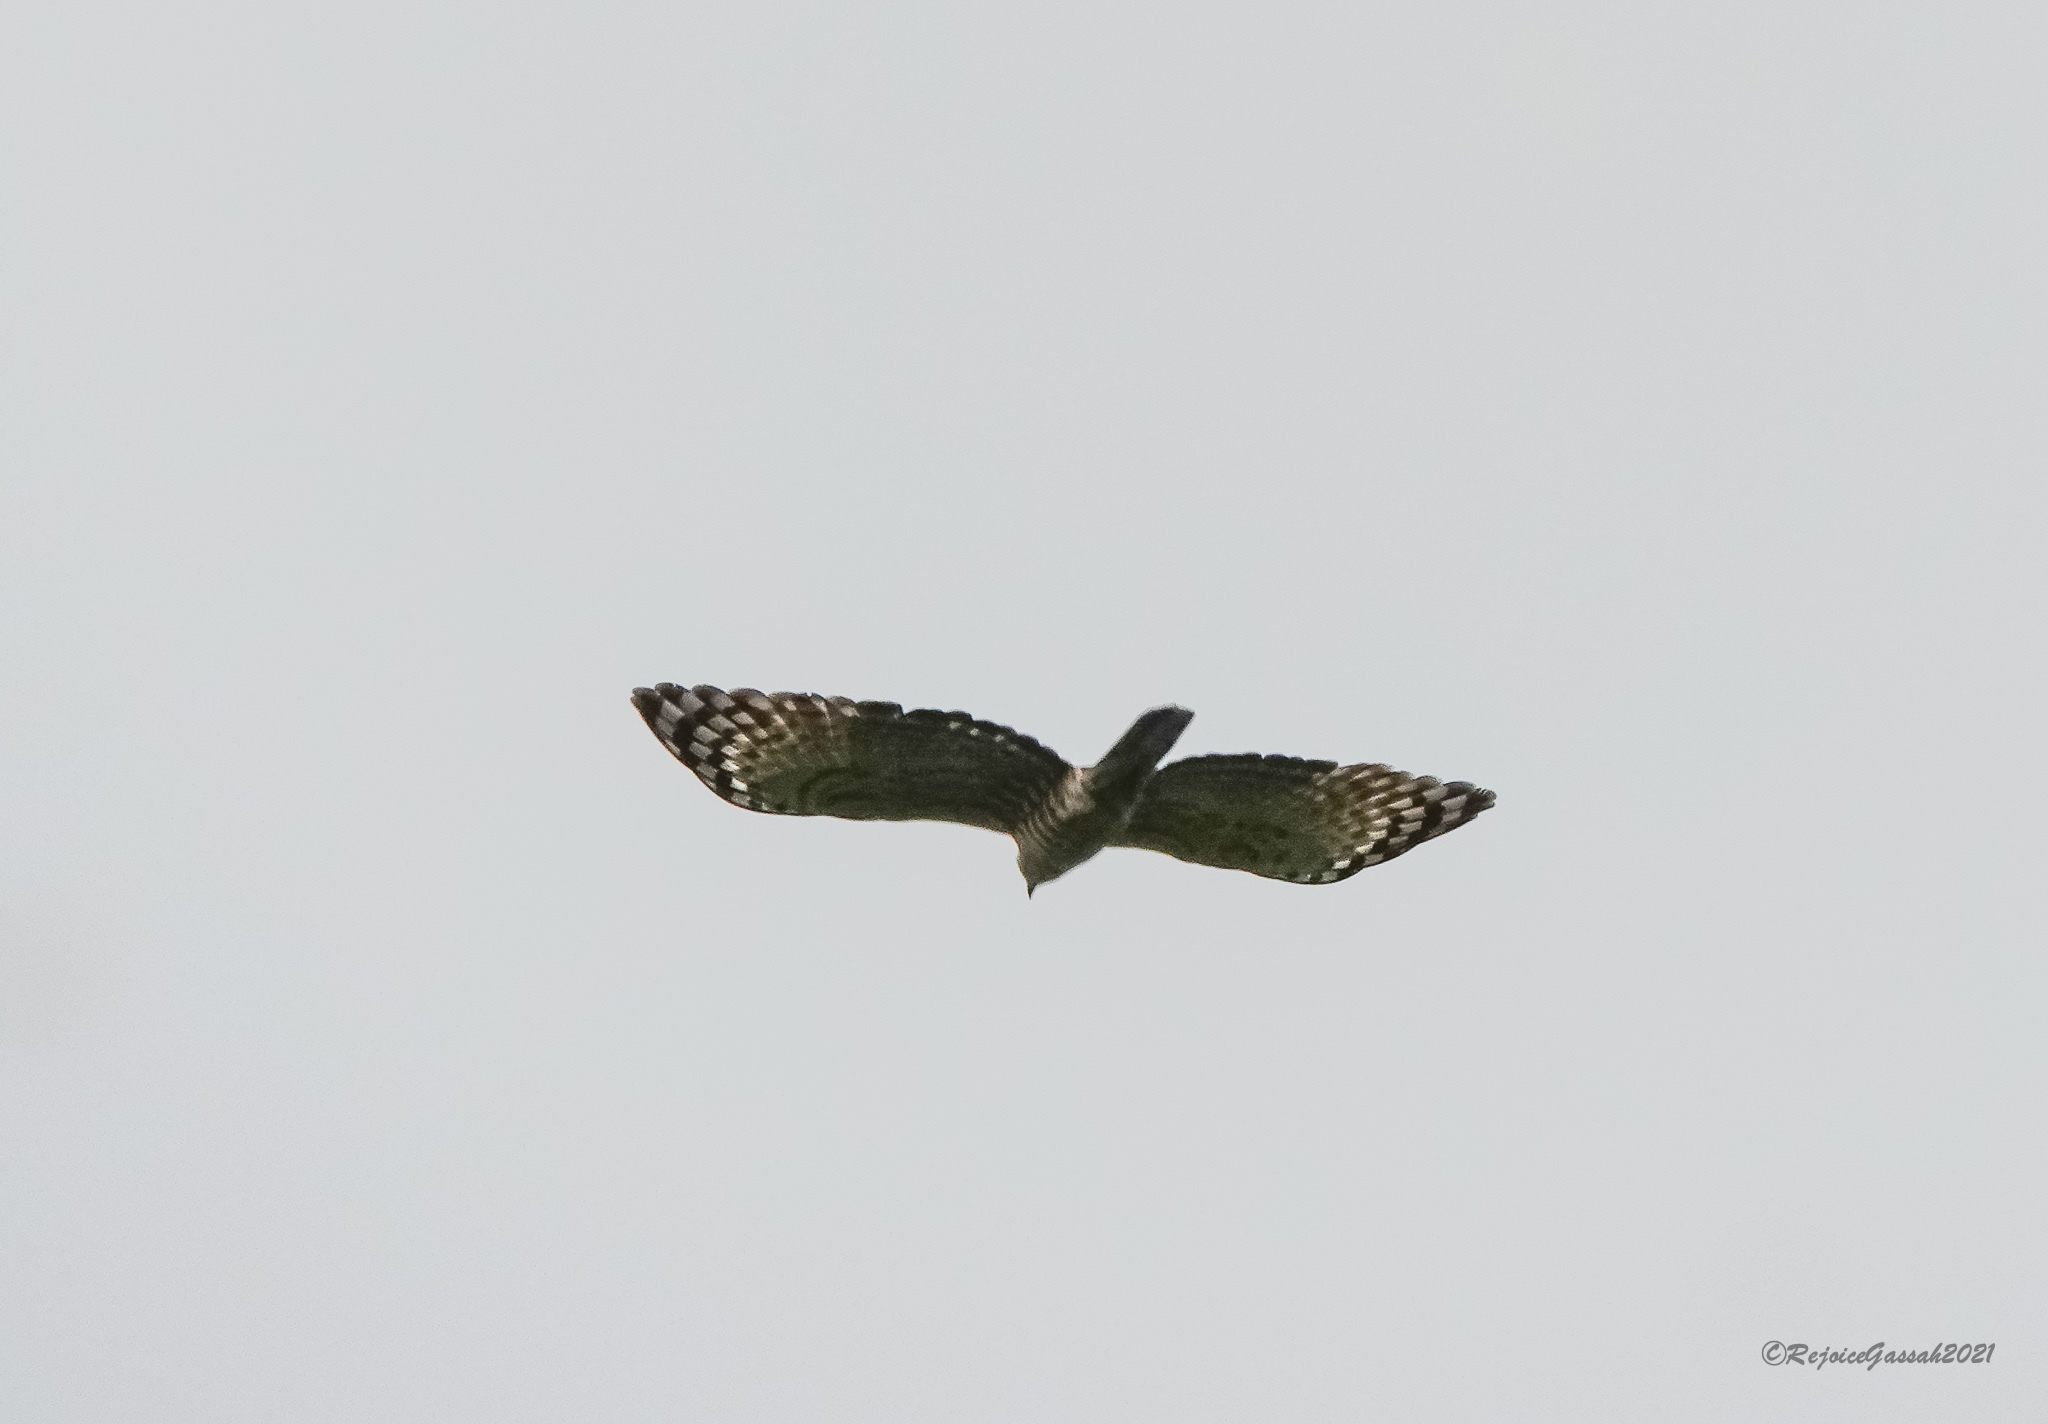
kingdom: Animalia
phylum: Chordata
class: Aves
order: Accipitriformes
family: Accipitridae
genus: Pernis
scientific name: Pernis ptilorhynchus
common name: Crested honey buzzard
